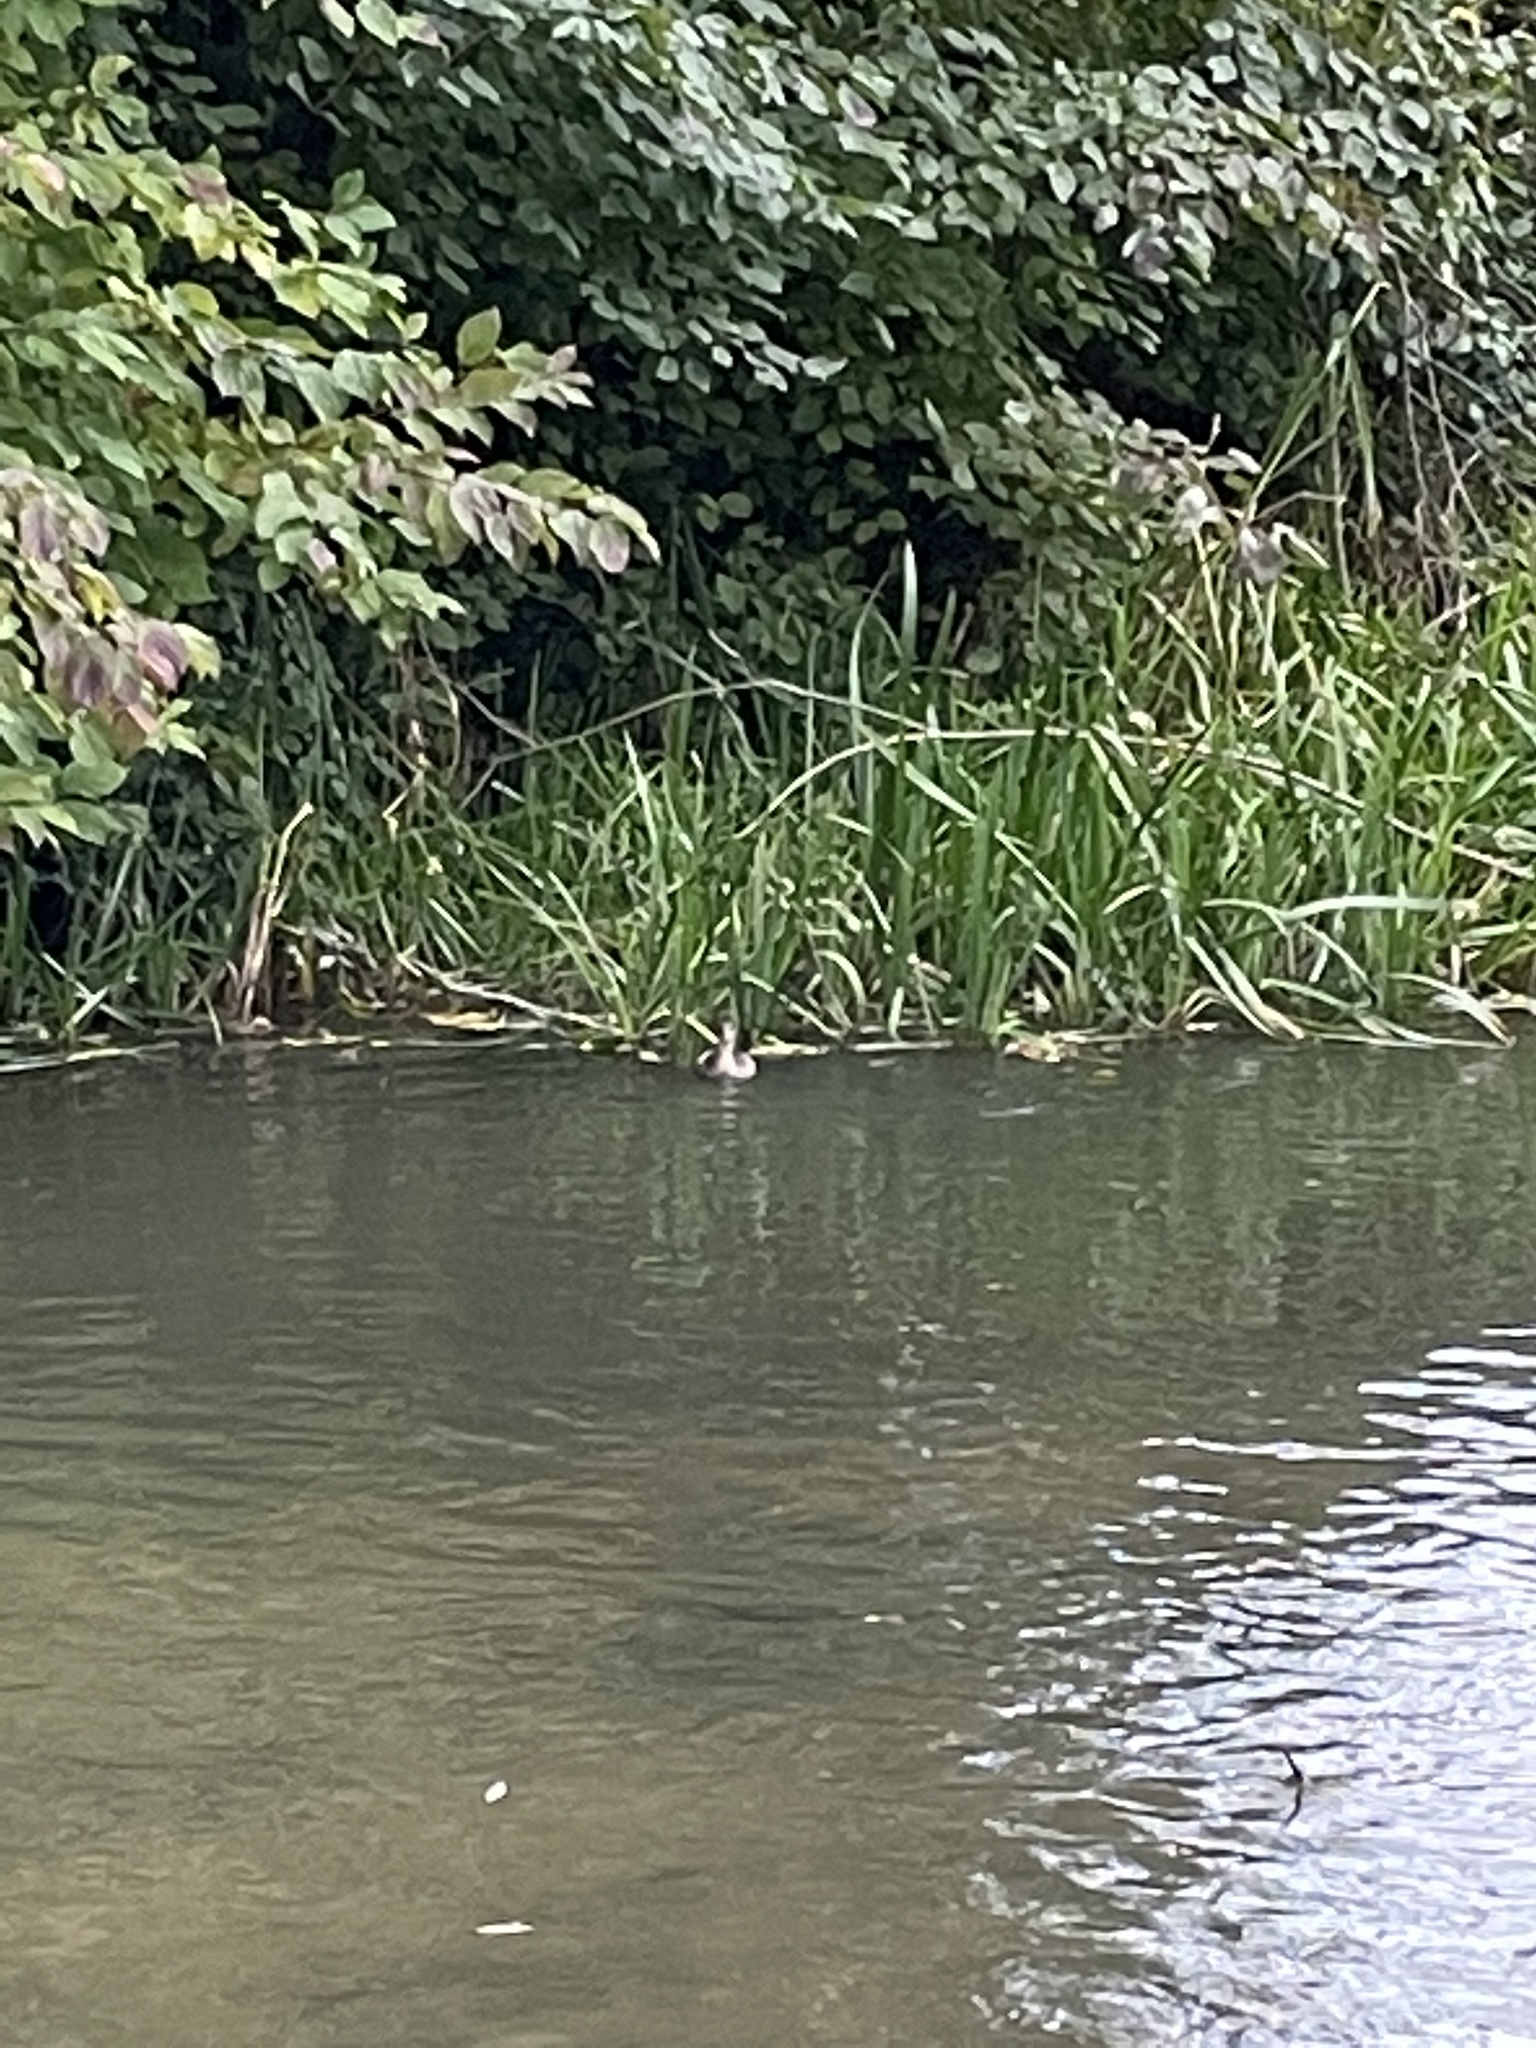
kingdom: Animalia
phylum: Chordata
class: Aves
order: Podicipediformes
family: Podicipedidae
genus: Tachybaptus
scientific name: Tachybaptus ruficollis
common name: Little grebe
